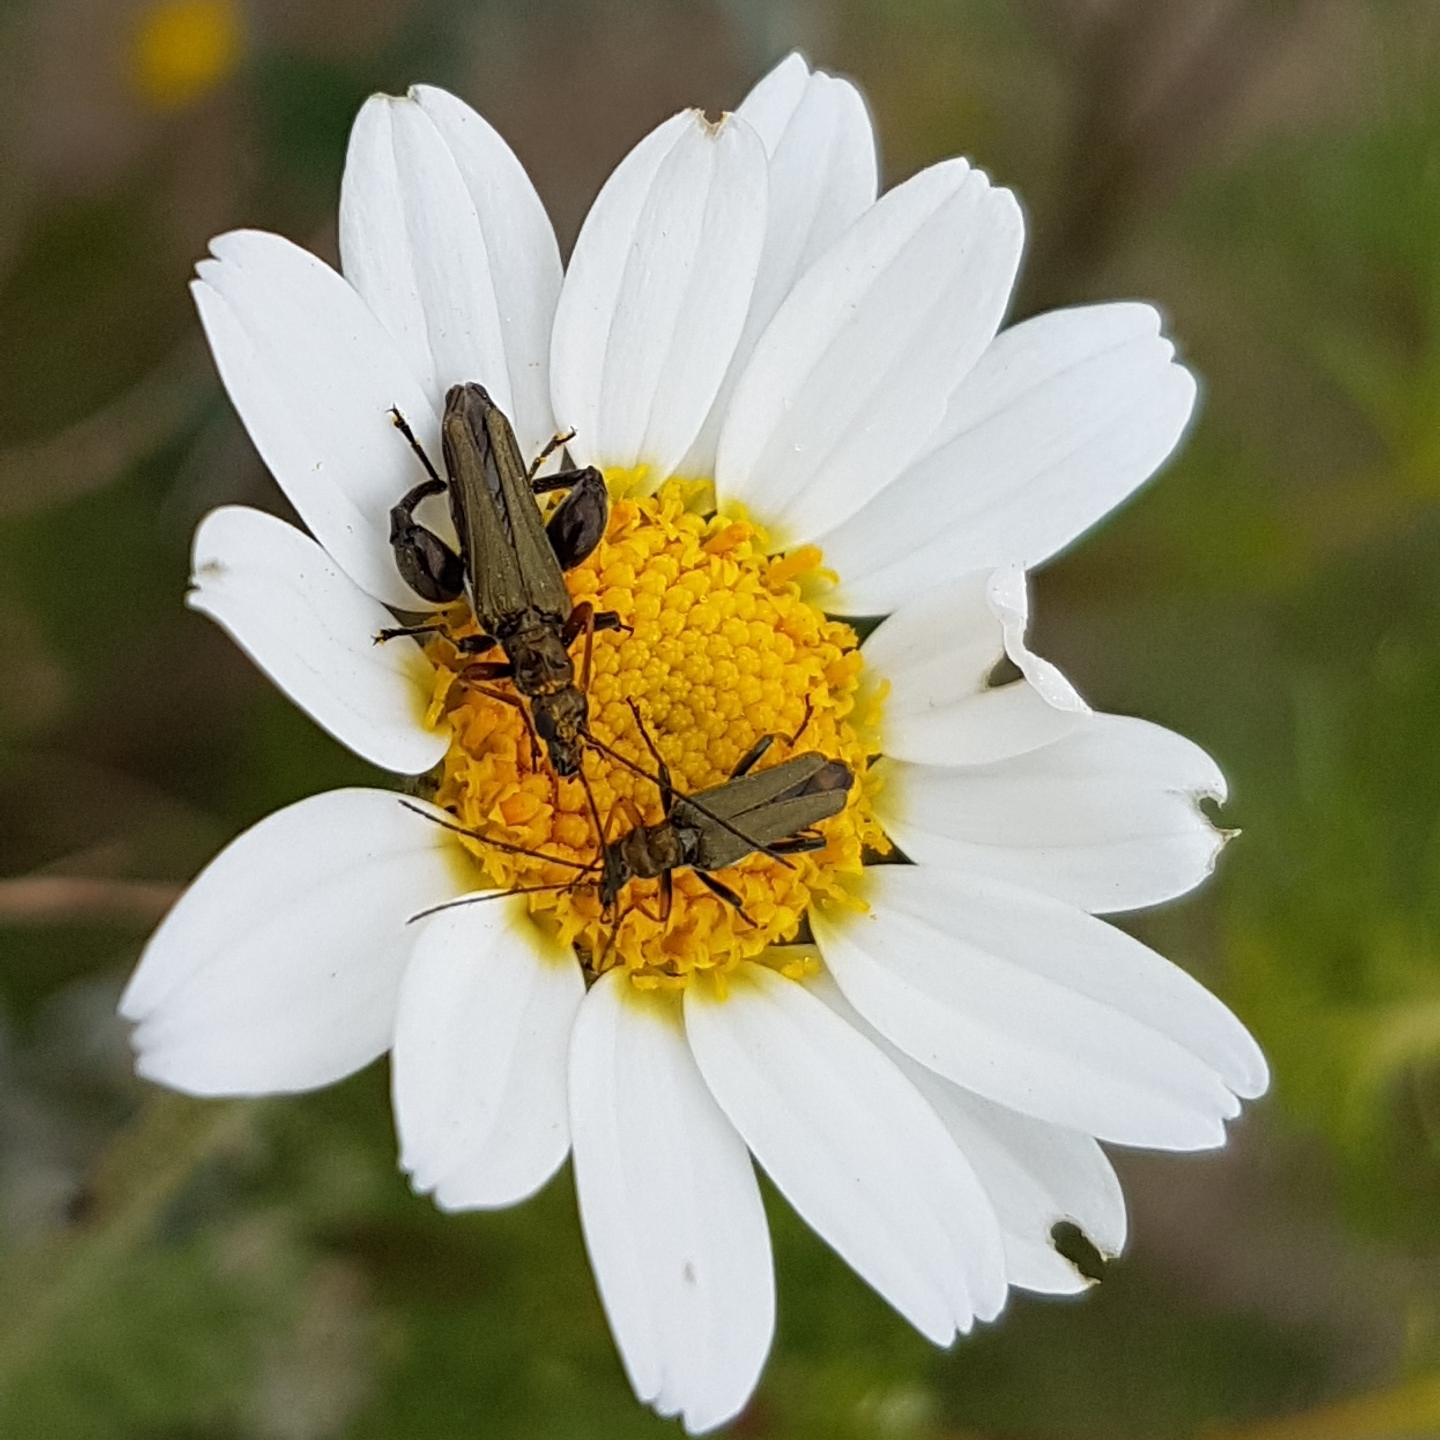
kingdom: Animalia
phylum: Arthropoda
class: Insecta
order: Coleoptera
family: Oedemeridae
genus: Oedemera
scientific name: Oedemera flavipes
